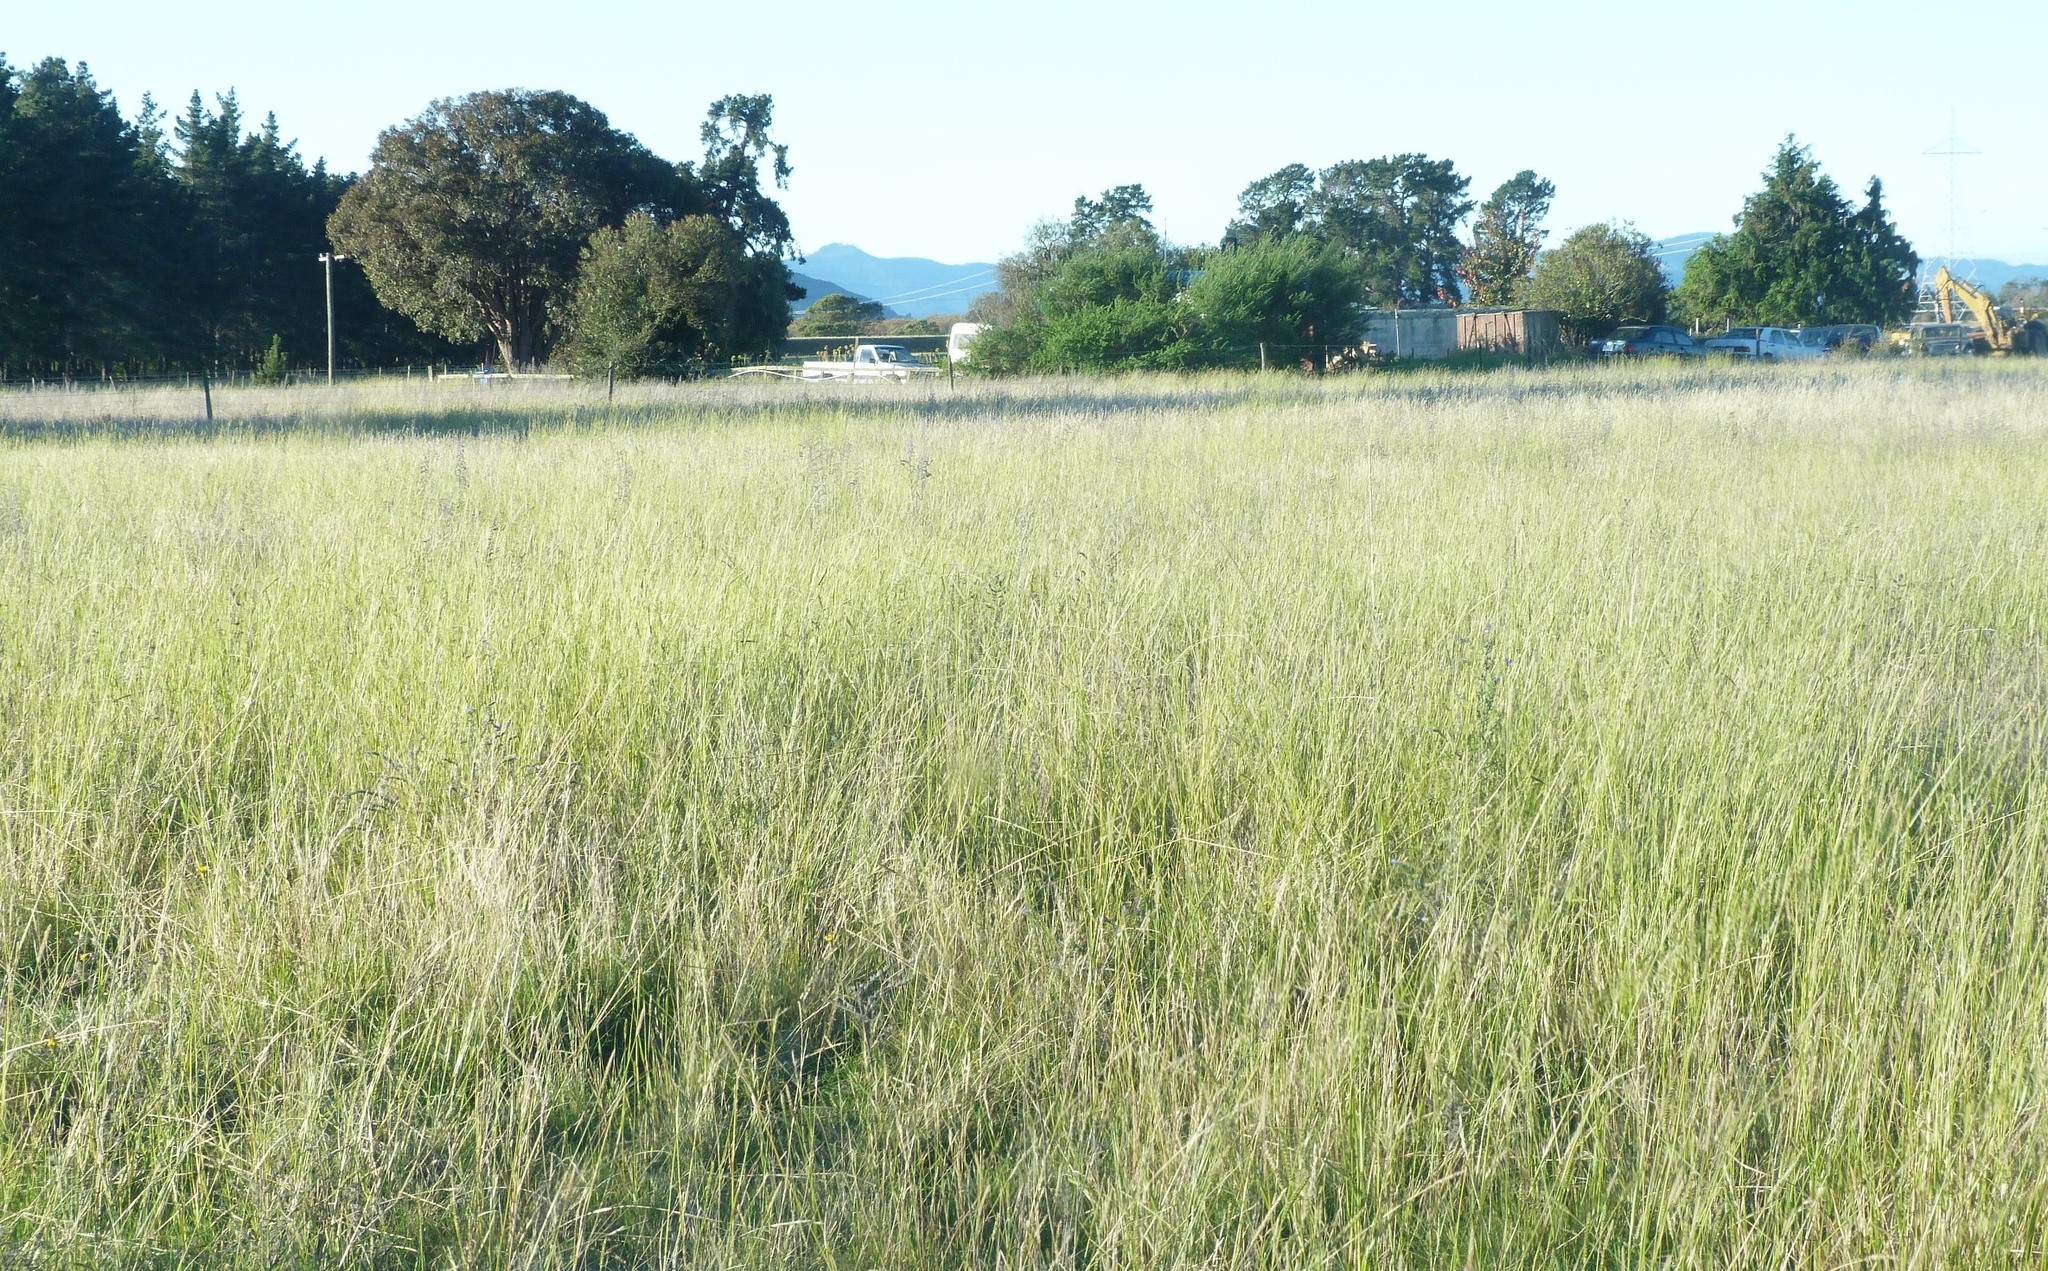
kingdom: Plantae
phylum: Tracheophyta
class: Liliopsida
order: Poales
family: Poaceae
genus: Cynosurus
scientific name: Cynosurus cristatus
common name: Crested dog's-tail
